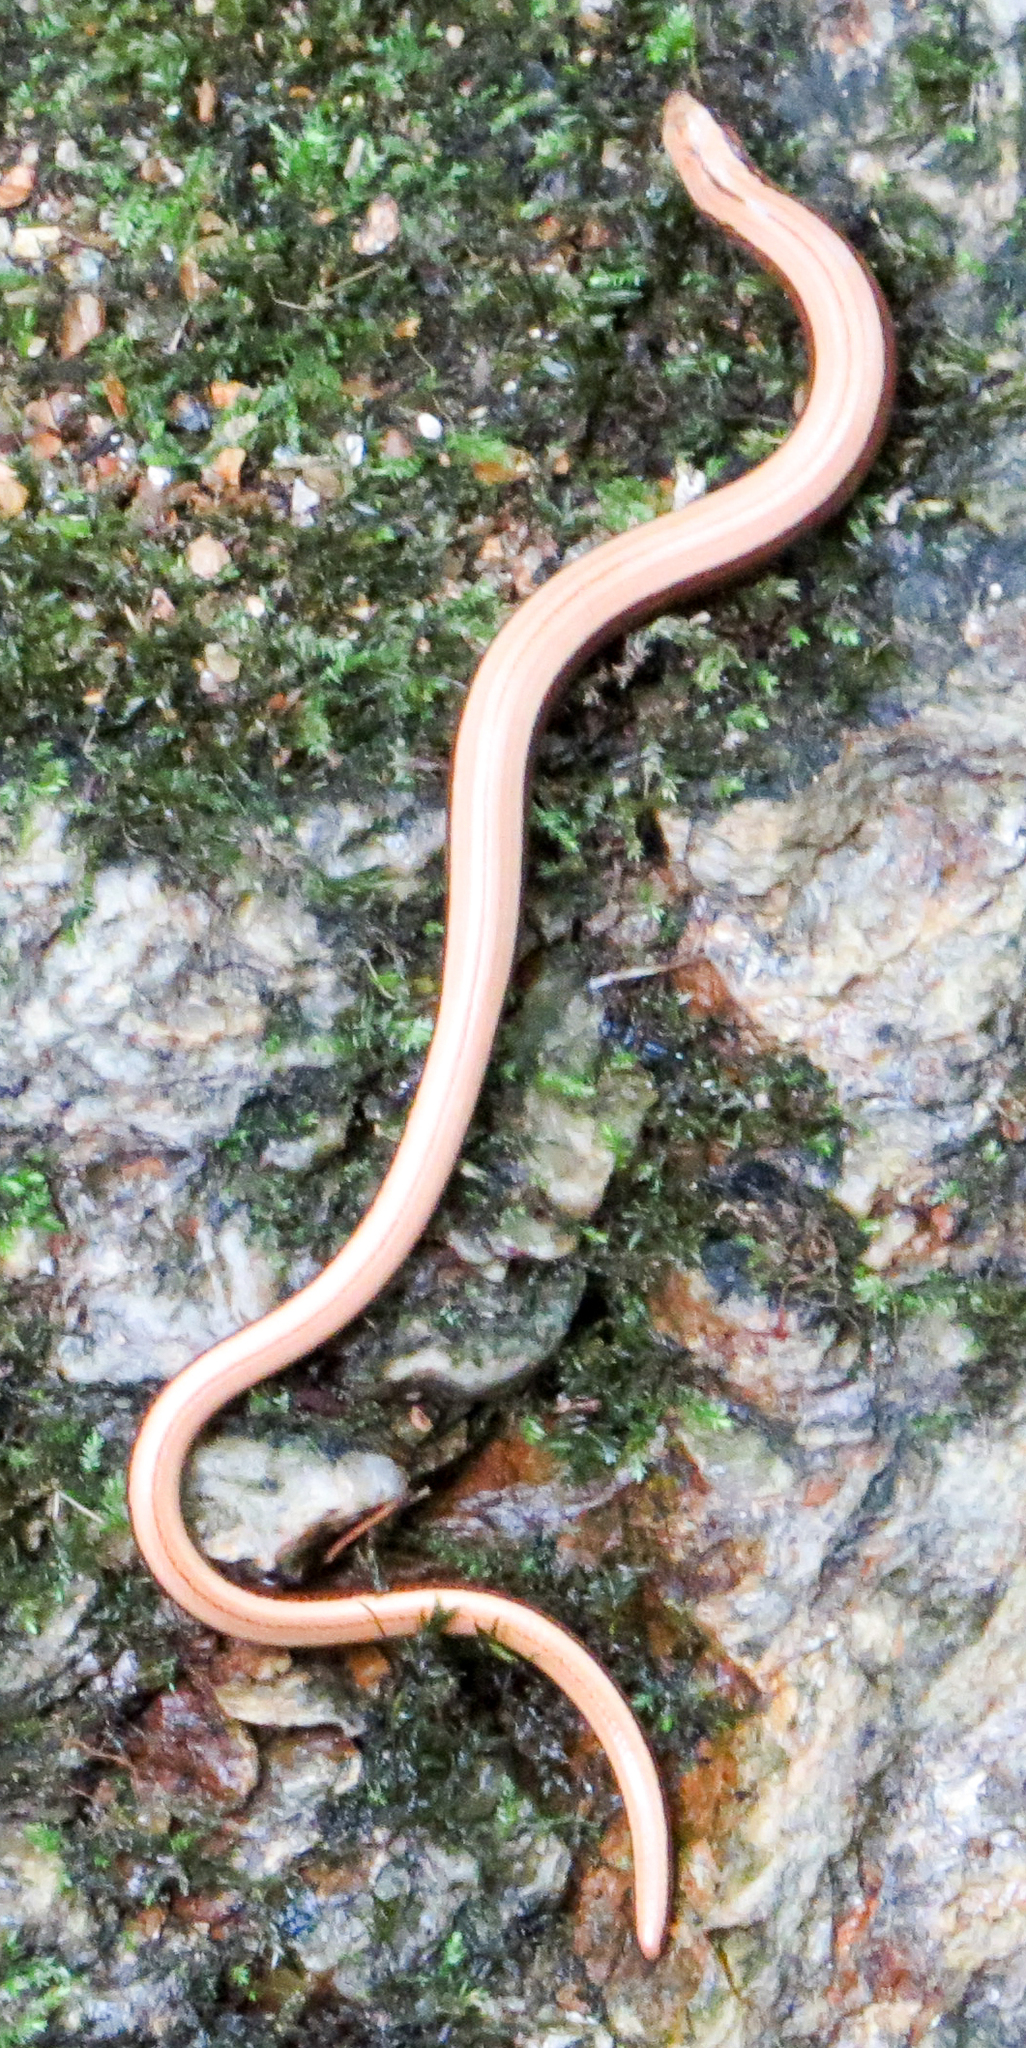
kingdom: Animalia
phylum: Chordata
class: Squamata
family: Anguidae
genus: Anguis
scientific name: Anguis fragilis
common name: Slow worm
